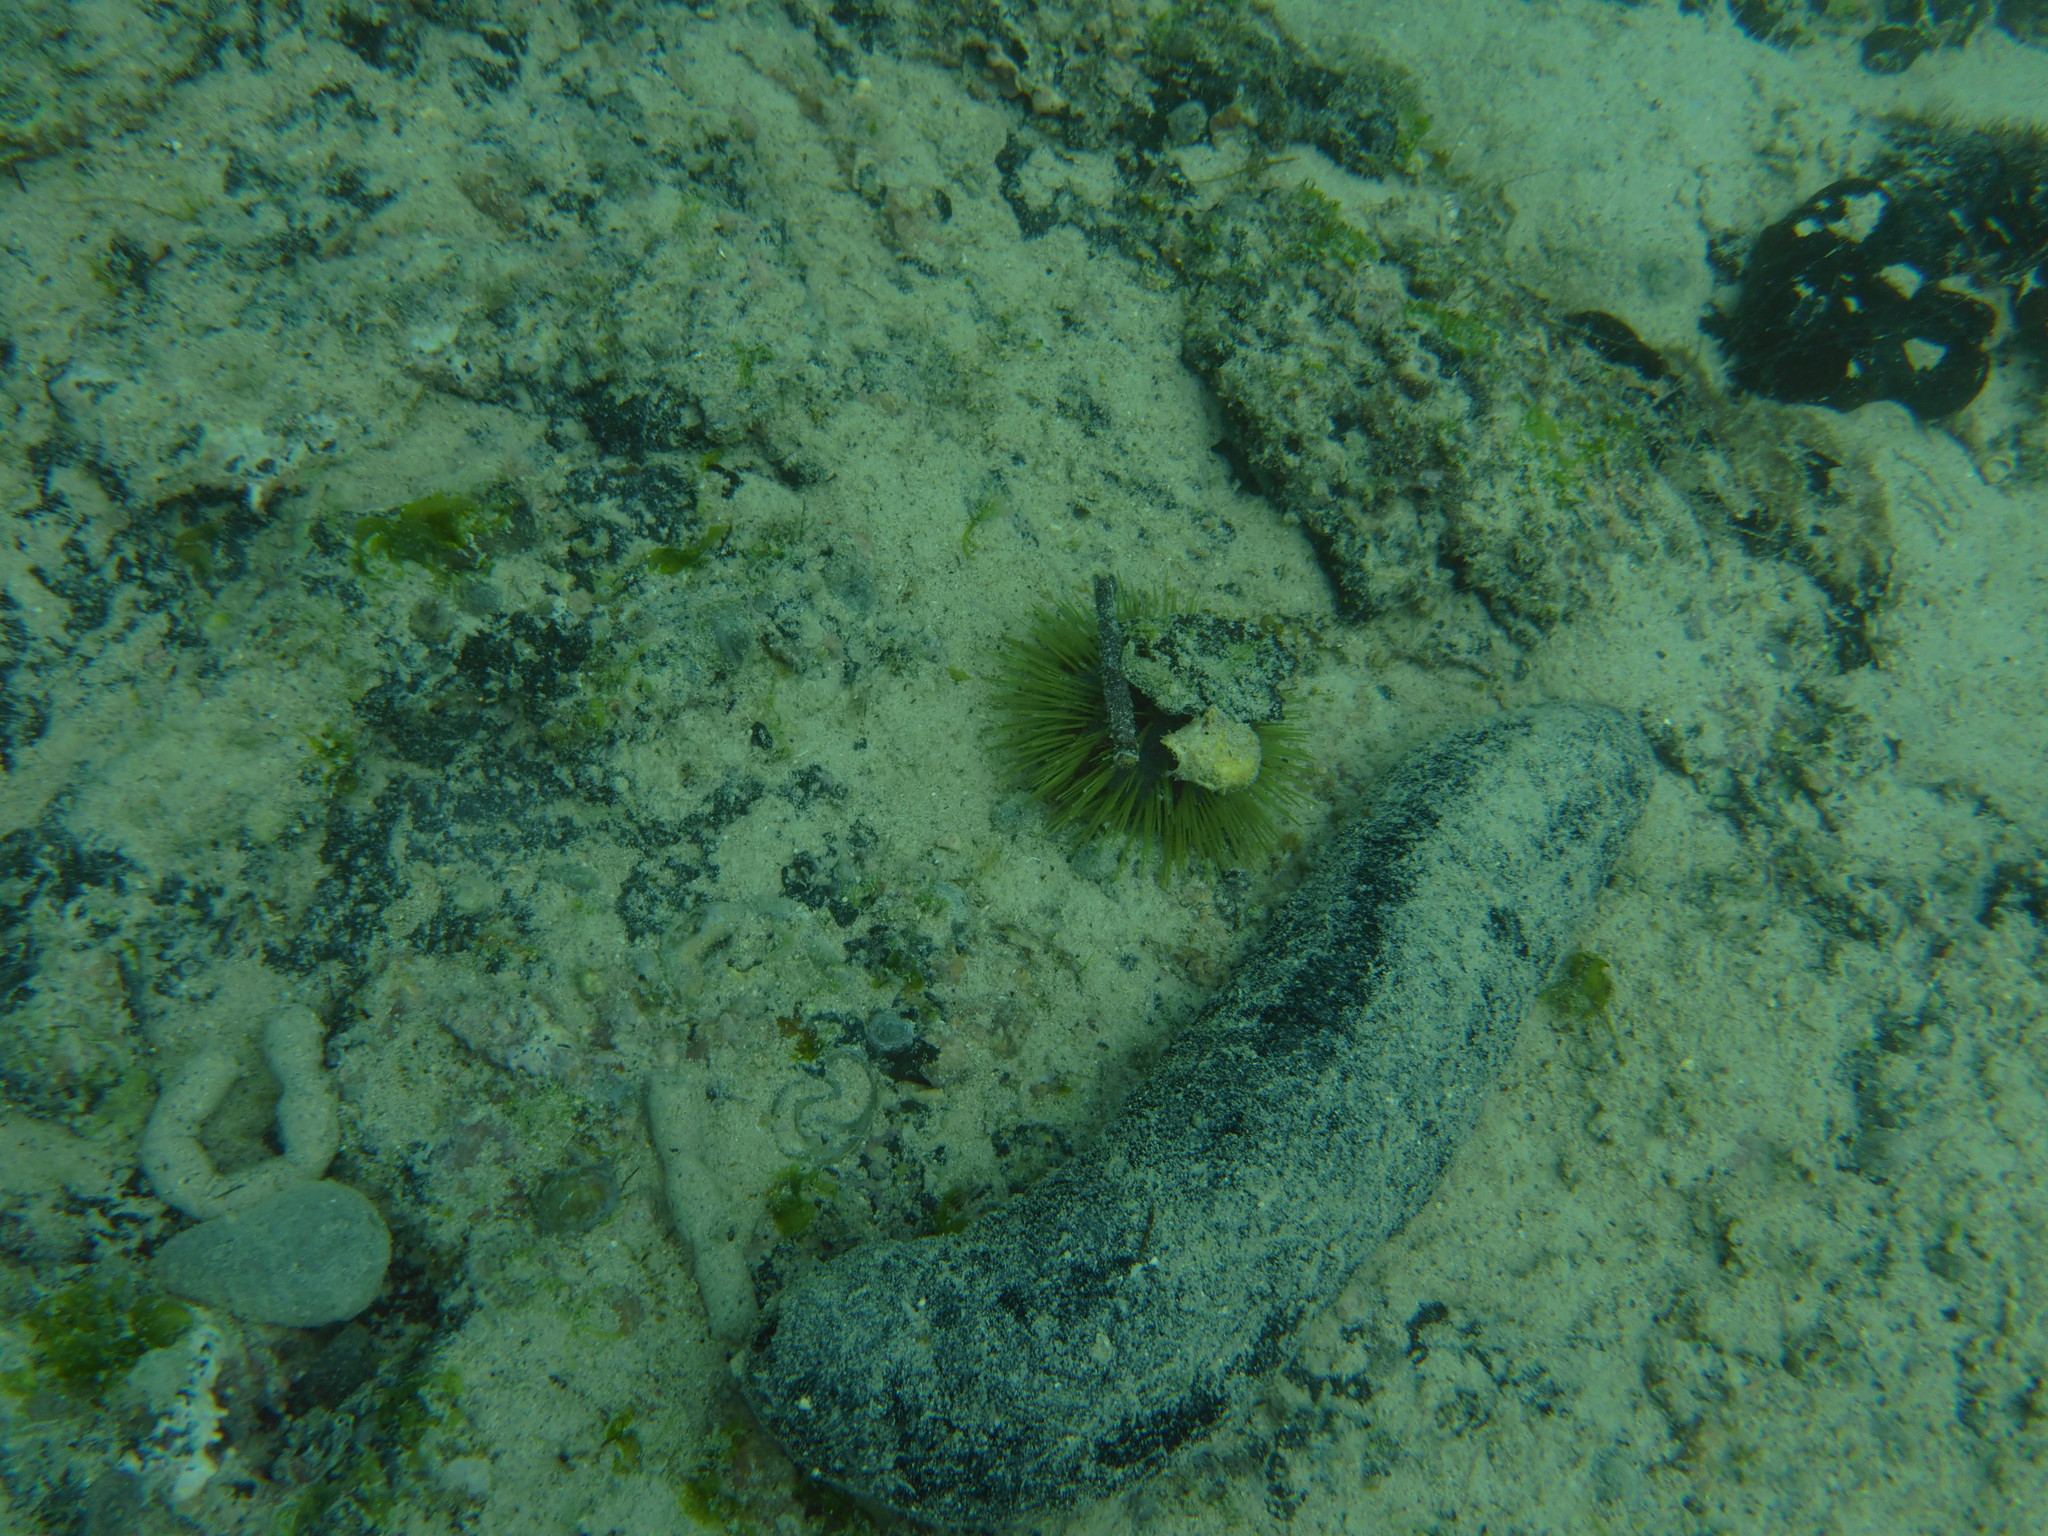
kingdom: Animalia
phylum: Echinodermata
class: Echinoidea
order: Camarodonta
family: Toxopneustidae
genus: Lytechinus
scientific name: Lytechinus semituberculatus
